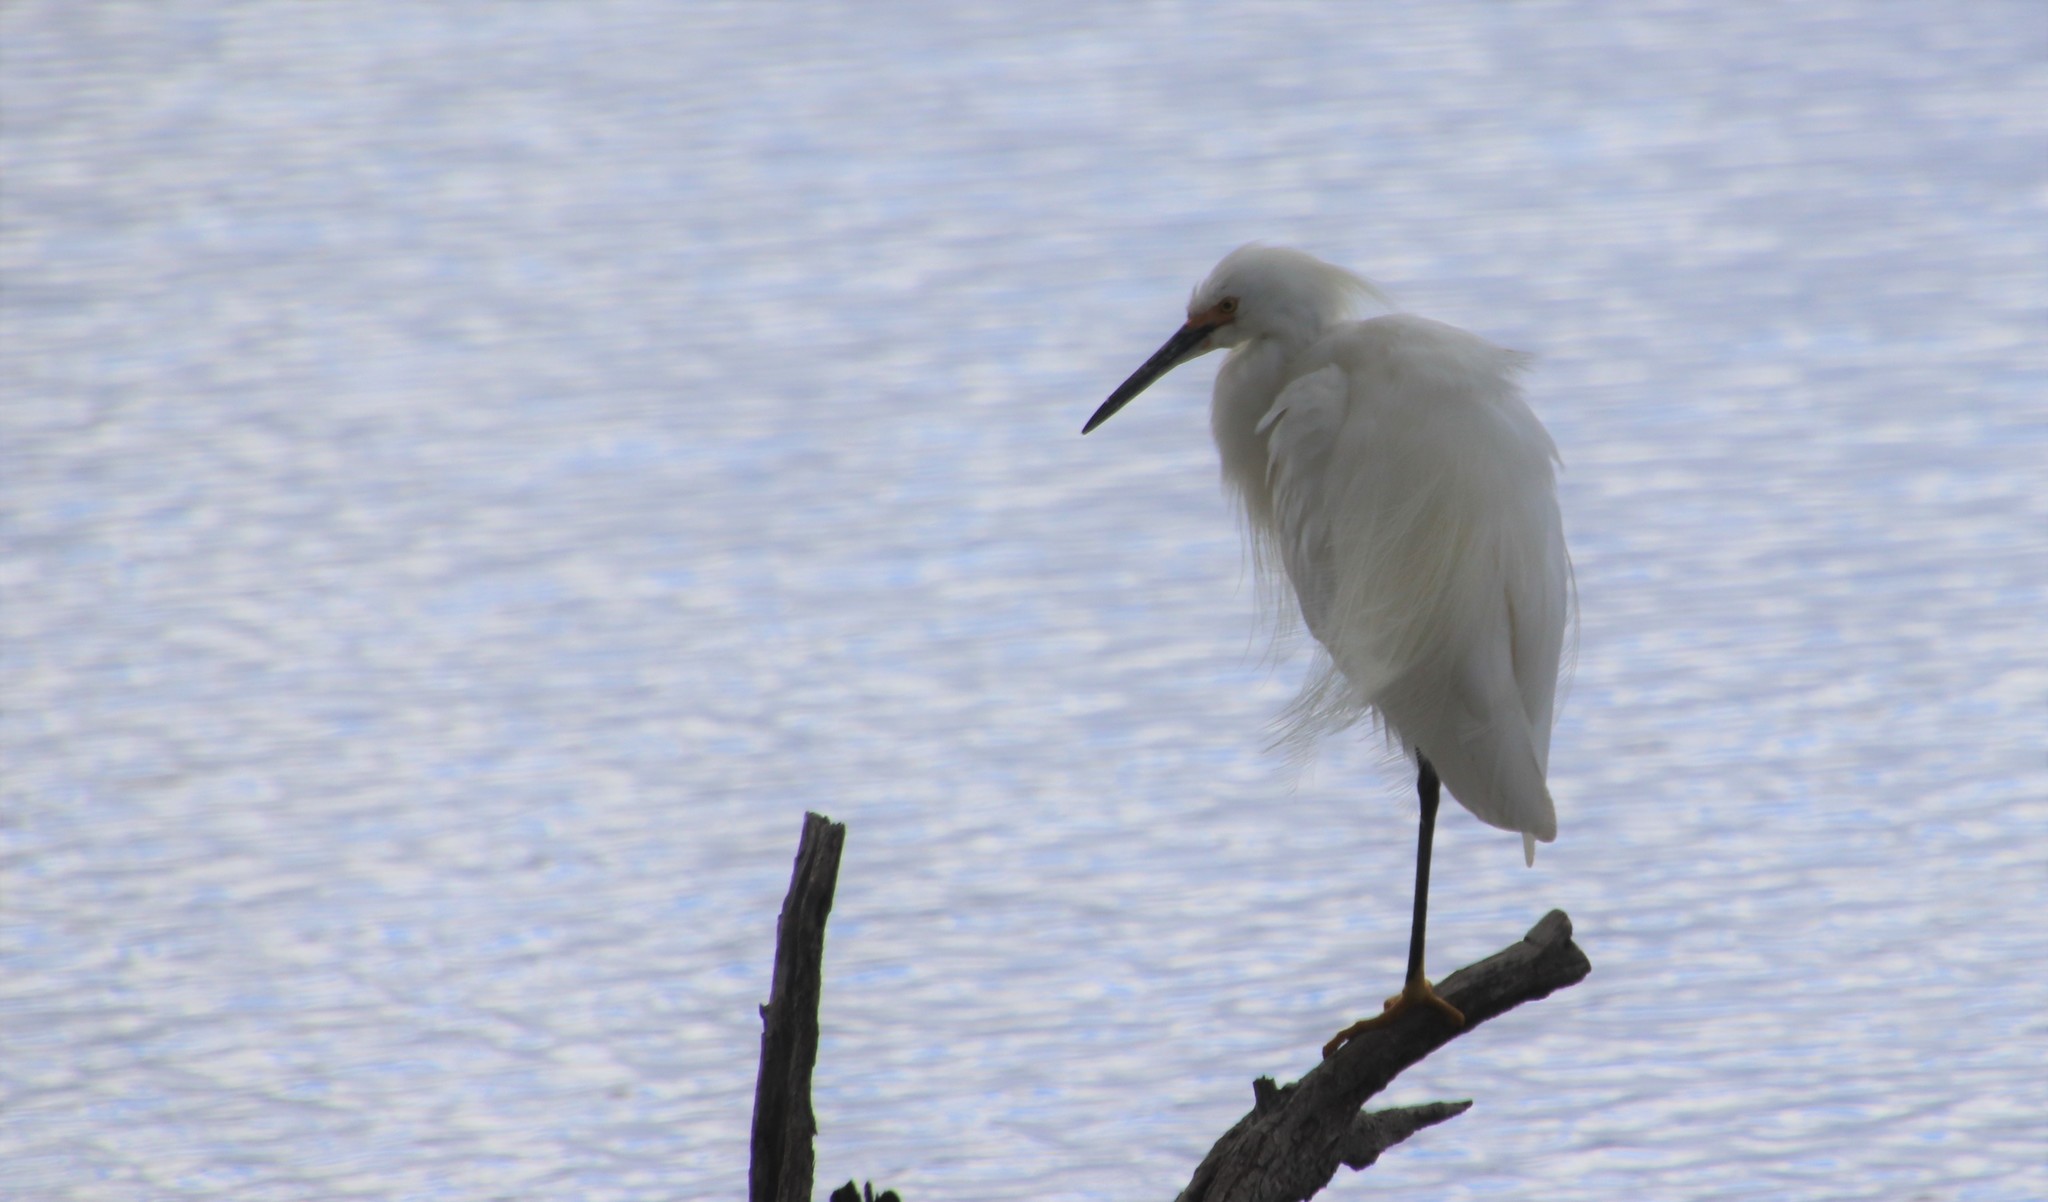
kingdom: Animalia
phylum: Chordata
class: Aves
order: Pelecaniformes
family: Ardeidae
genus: Egretta
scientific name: Egretta thula
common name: Snowy egret
